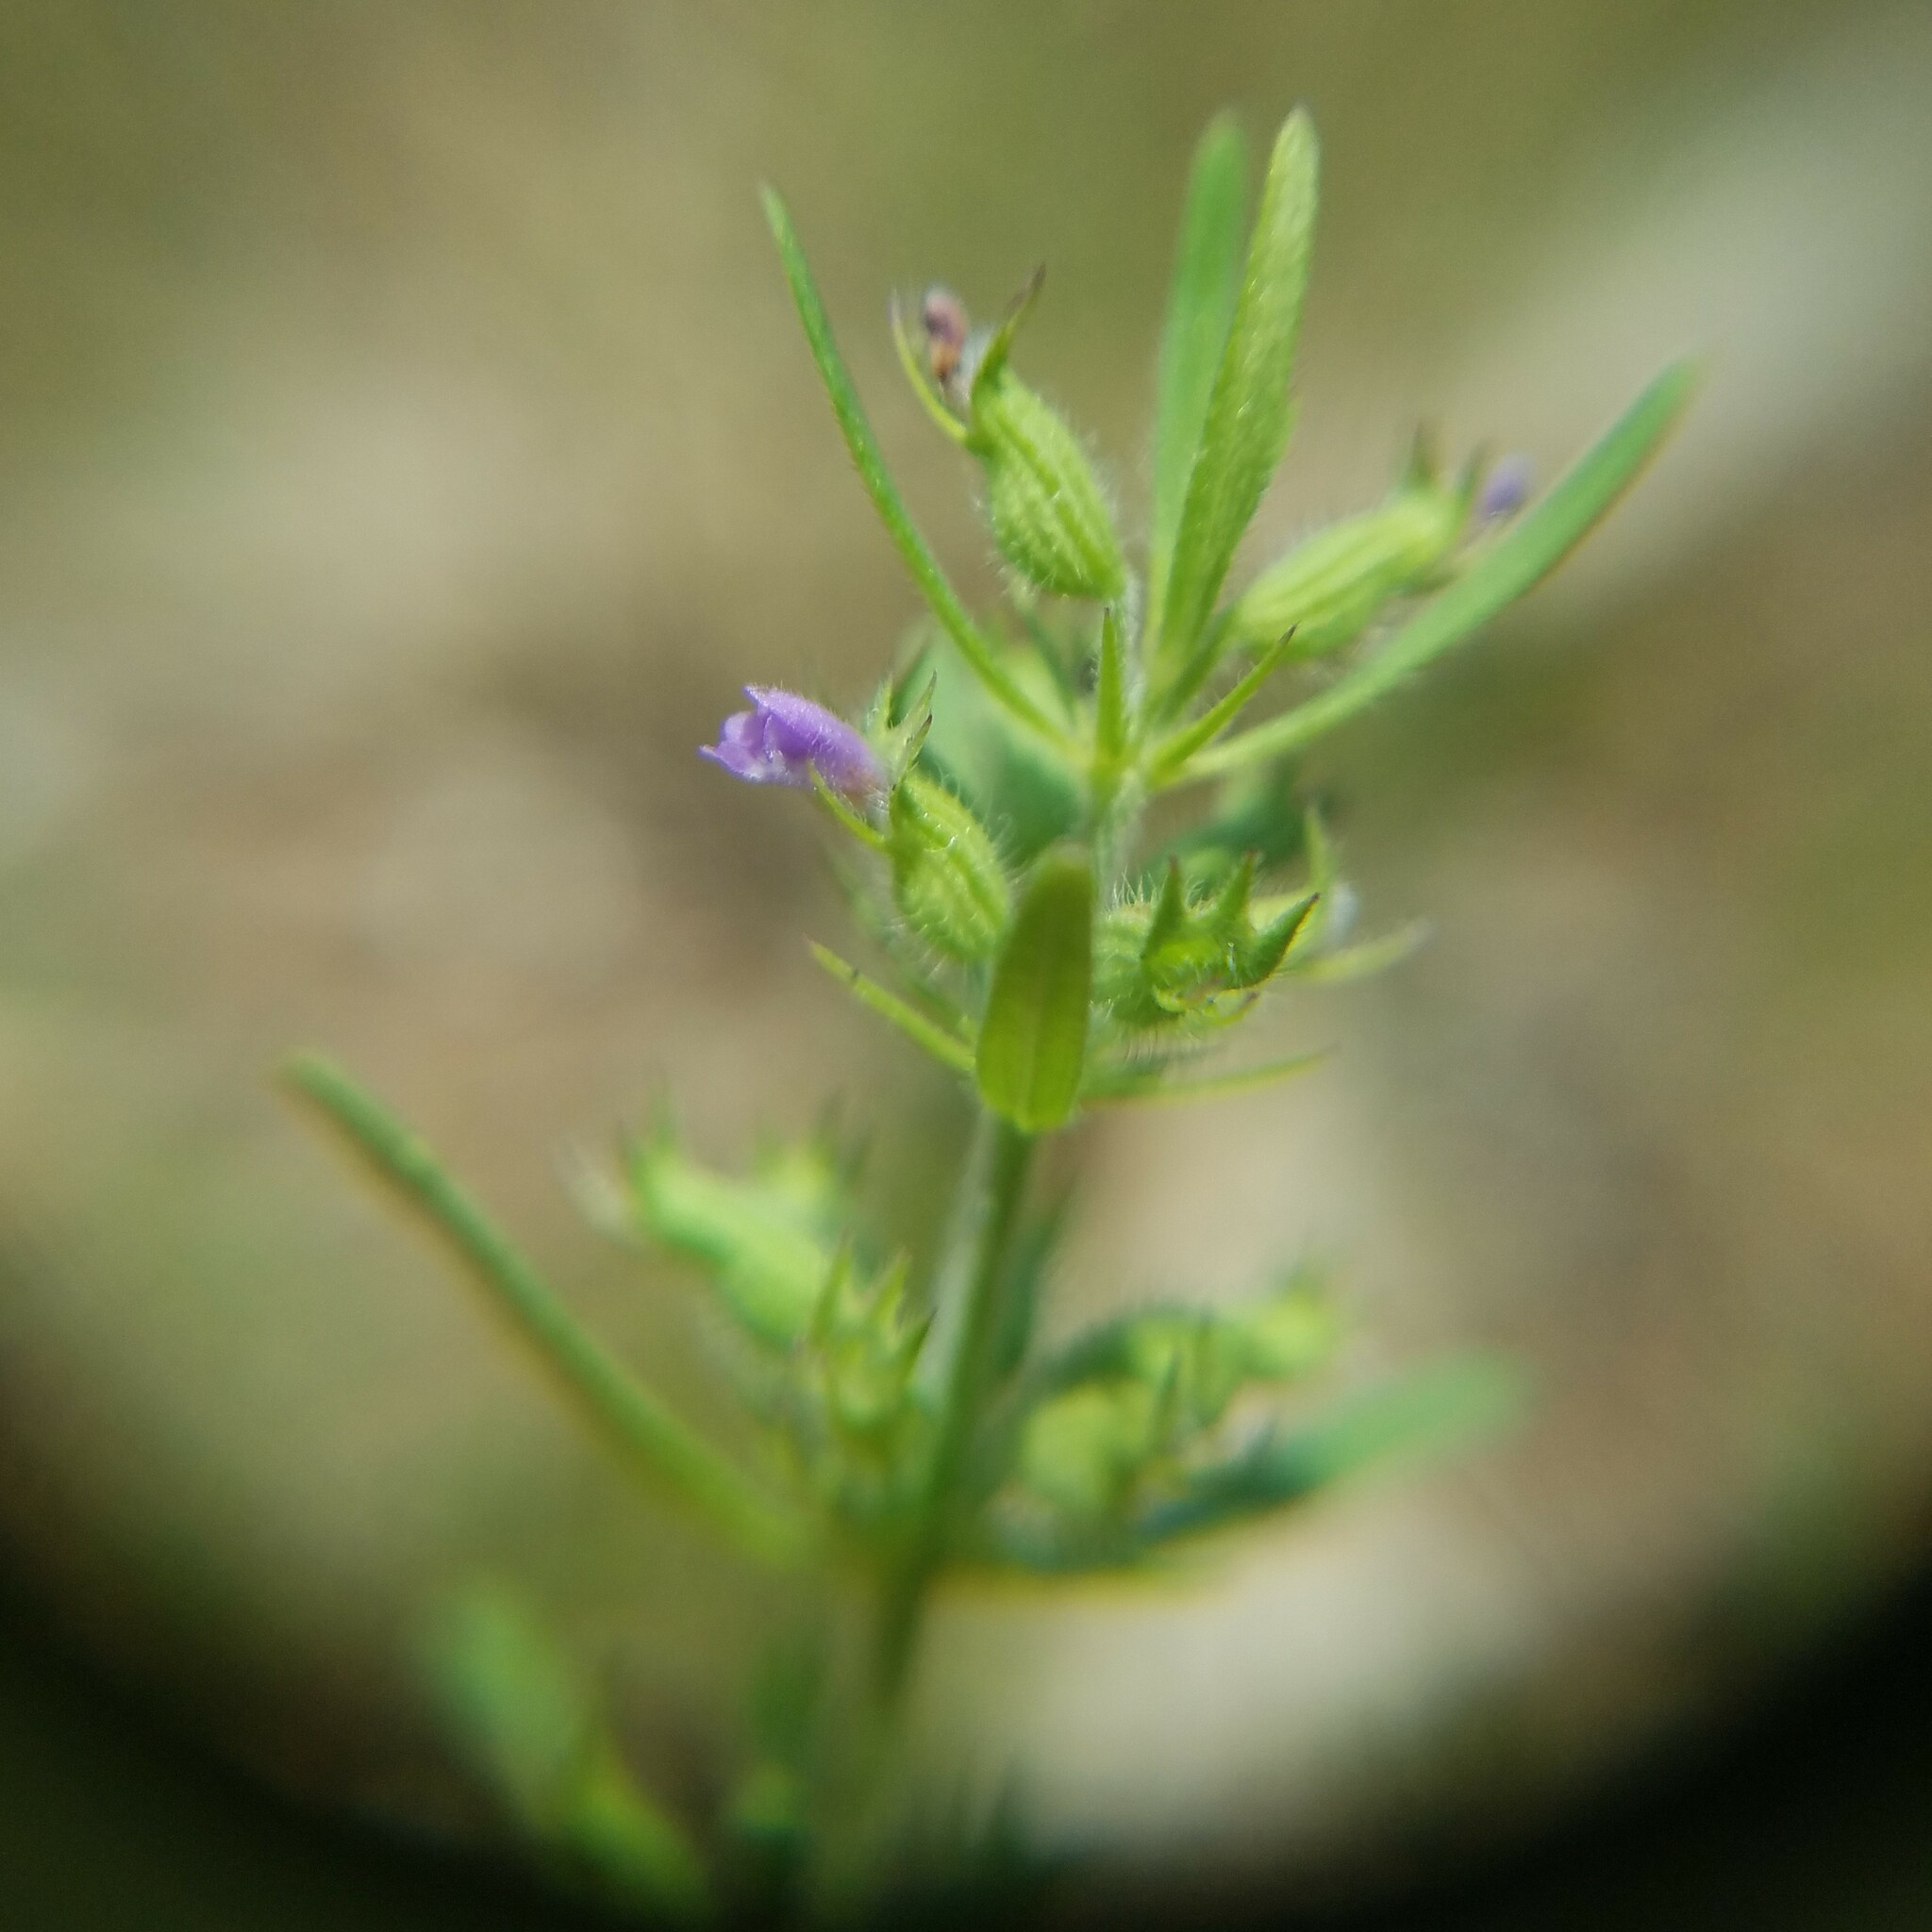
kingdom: Plantae
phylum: Tracheophyta
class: Magnoliopsida
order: Lamiales
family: Lamiaceae
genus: Hedeoma
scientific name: Hedeoma hispida
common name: Mock pennyroyal
